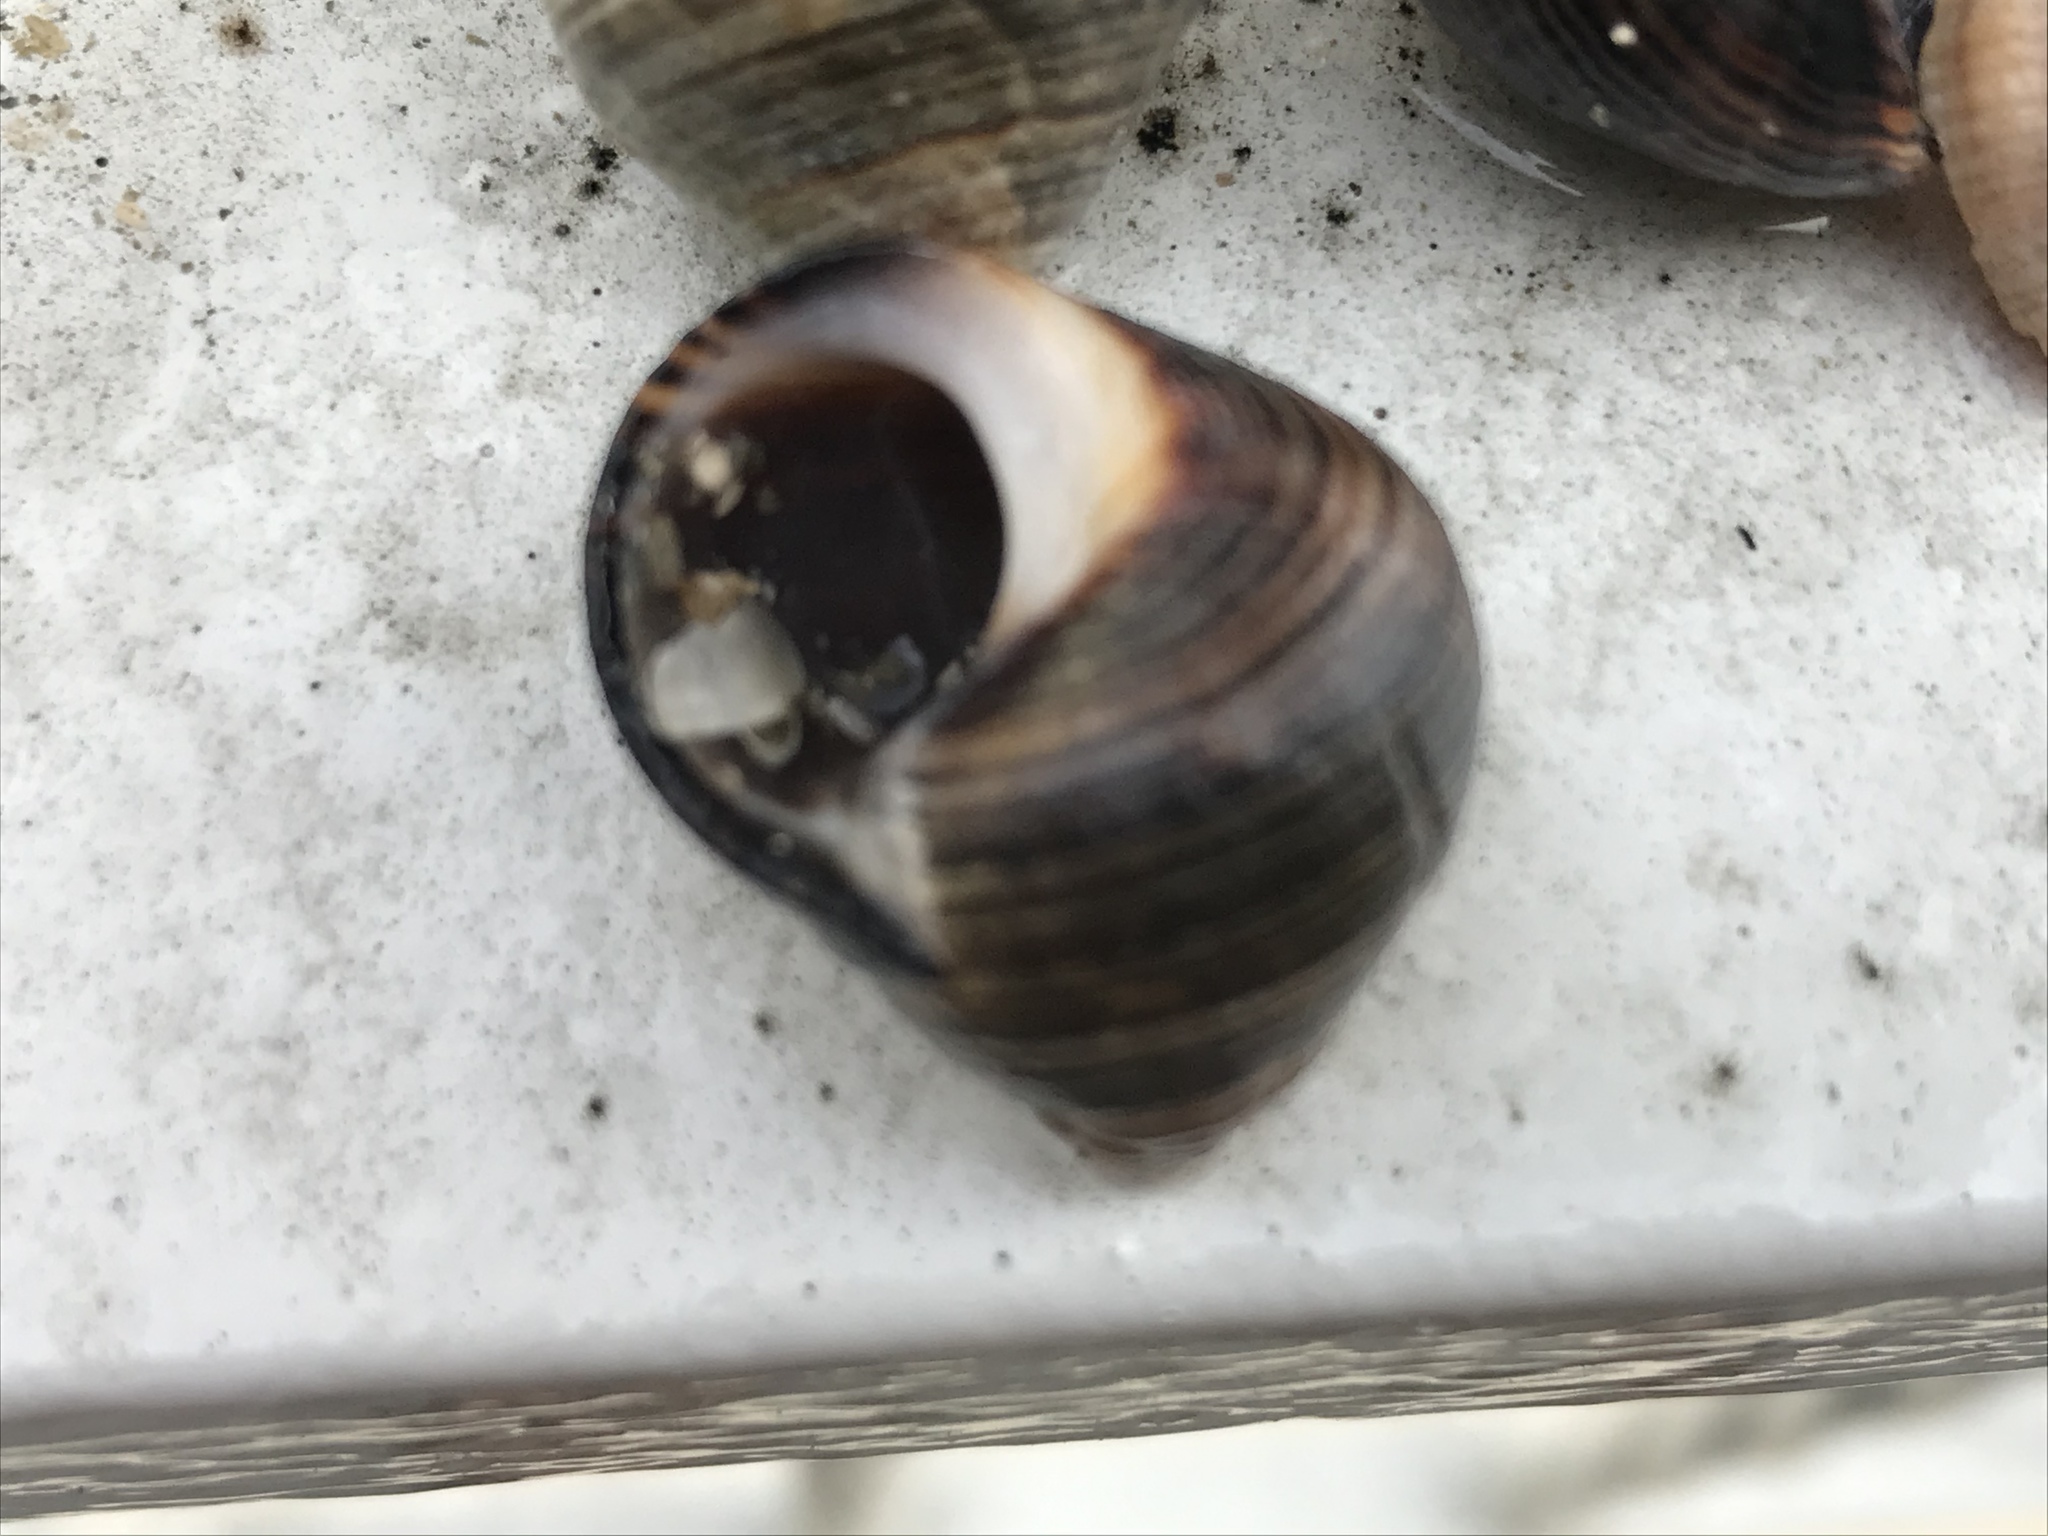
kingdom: Animalia
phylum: Mollusca
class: Gastropoda
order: Littorinimorpha
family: Littorinidae
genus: Littorina
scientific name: Littorina littorea
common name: Common periwinkle
